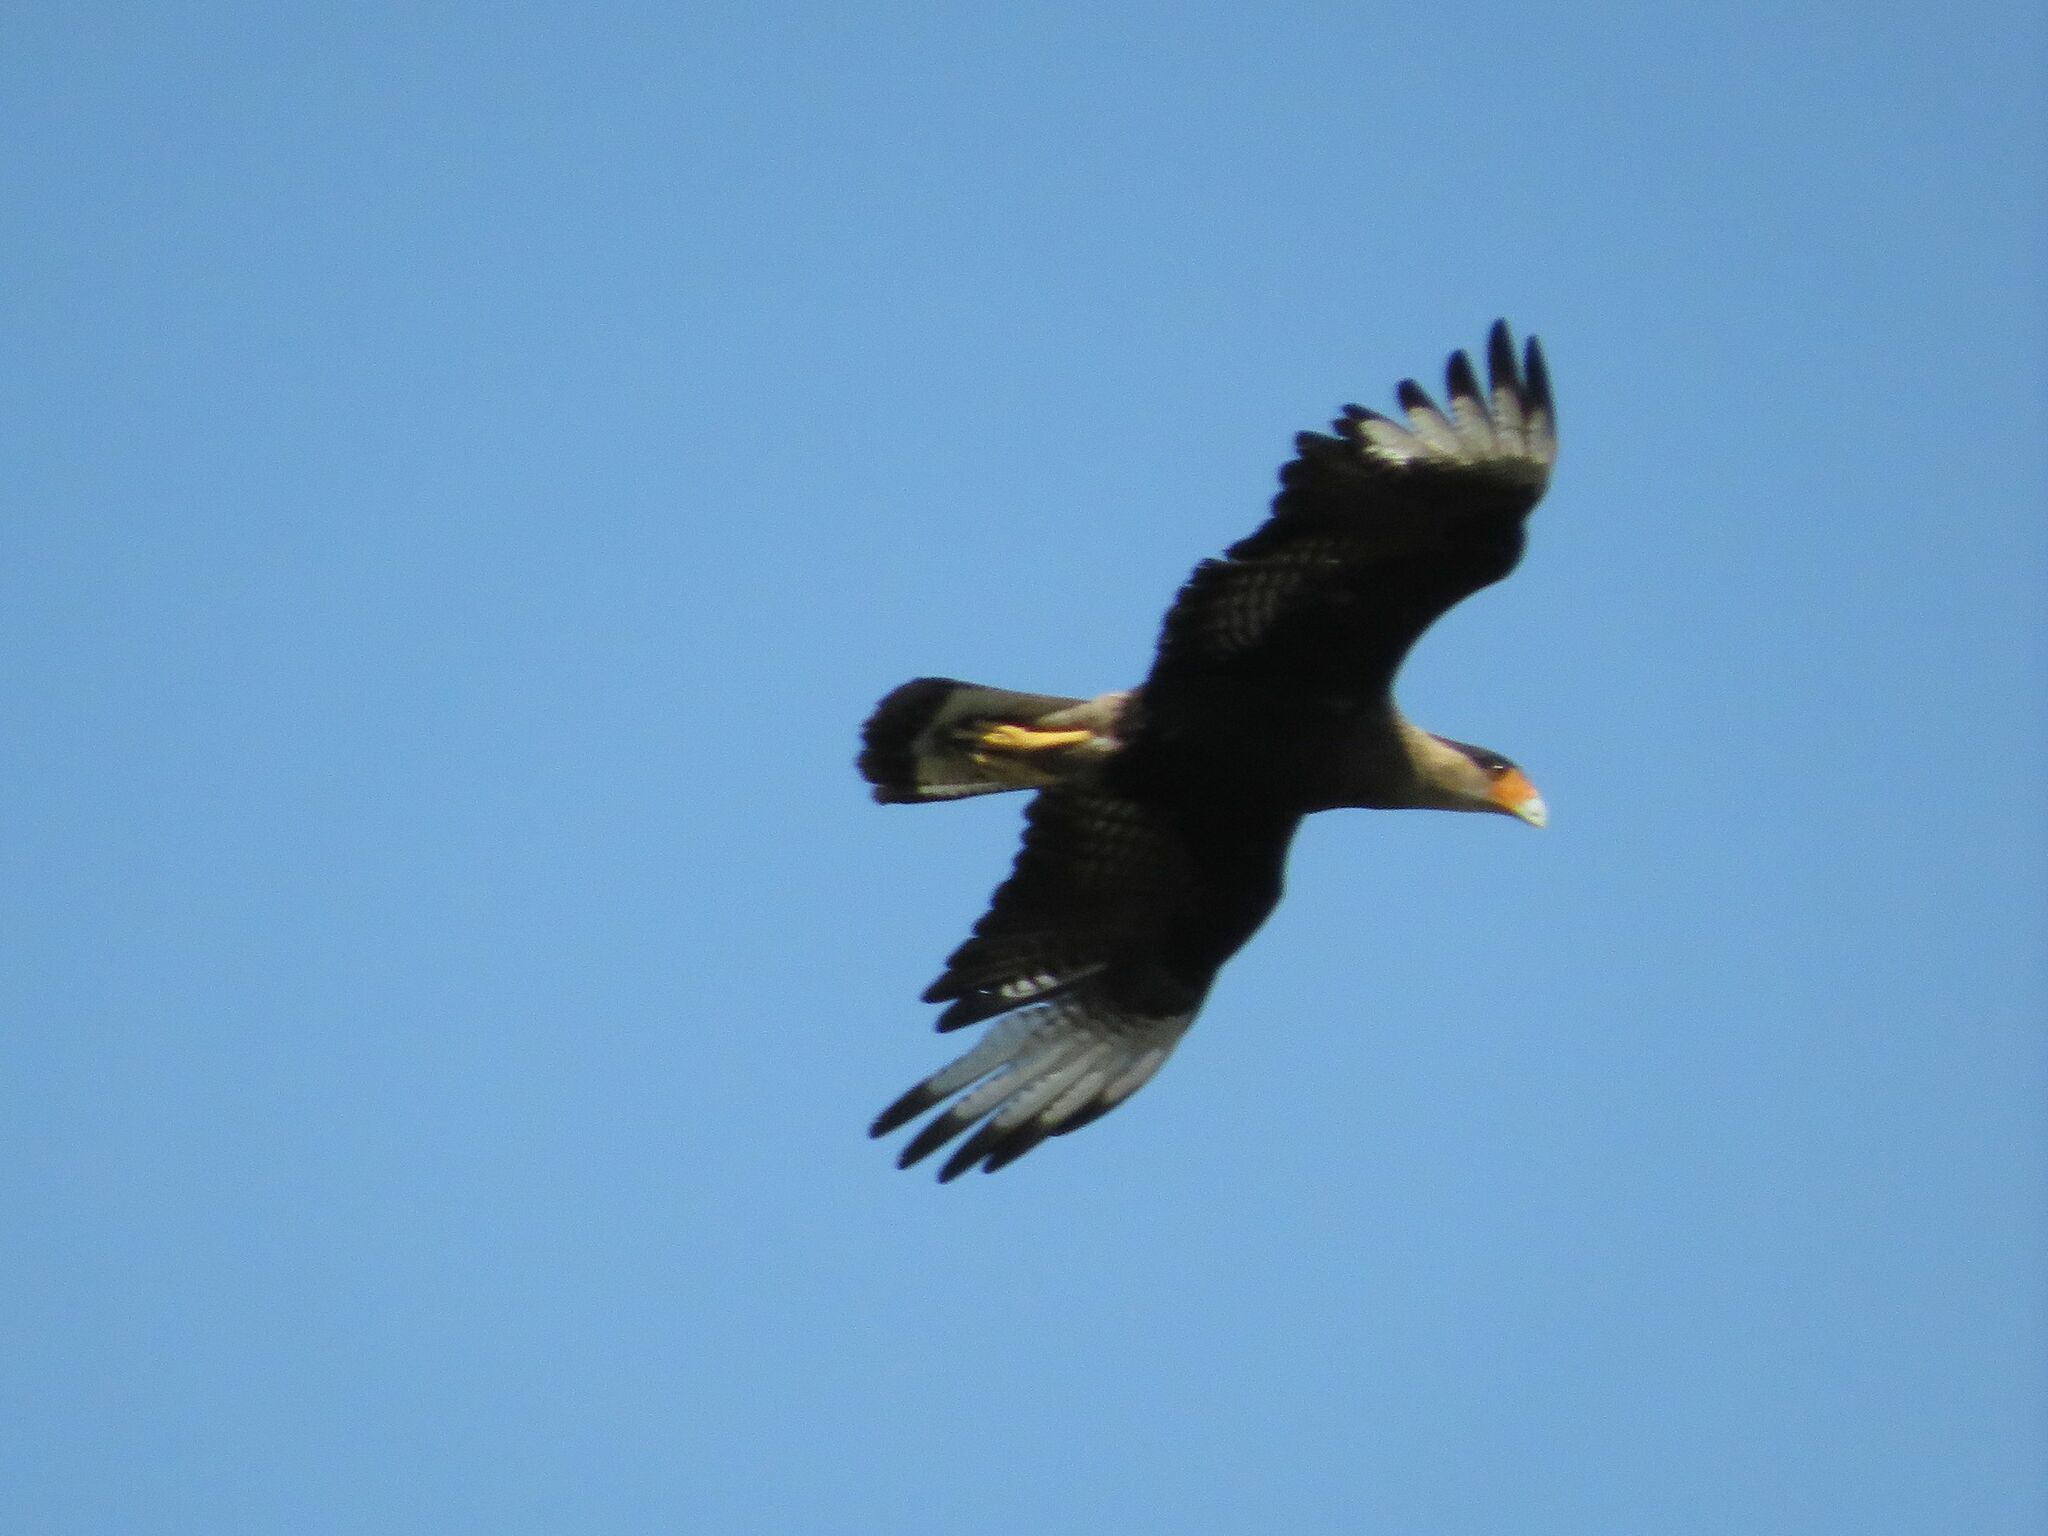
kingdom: Animalia
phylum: Chordata
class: Aves
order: Falconiformes
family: Falconidae
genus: Caracara
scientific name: Caracara plancus
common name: Southern caracara
